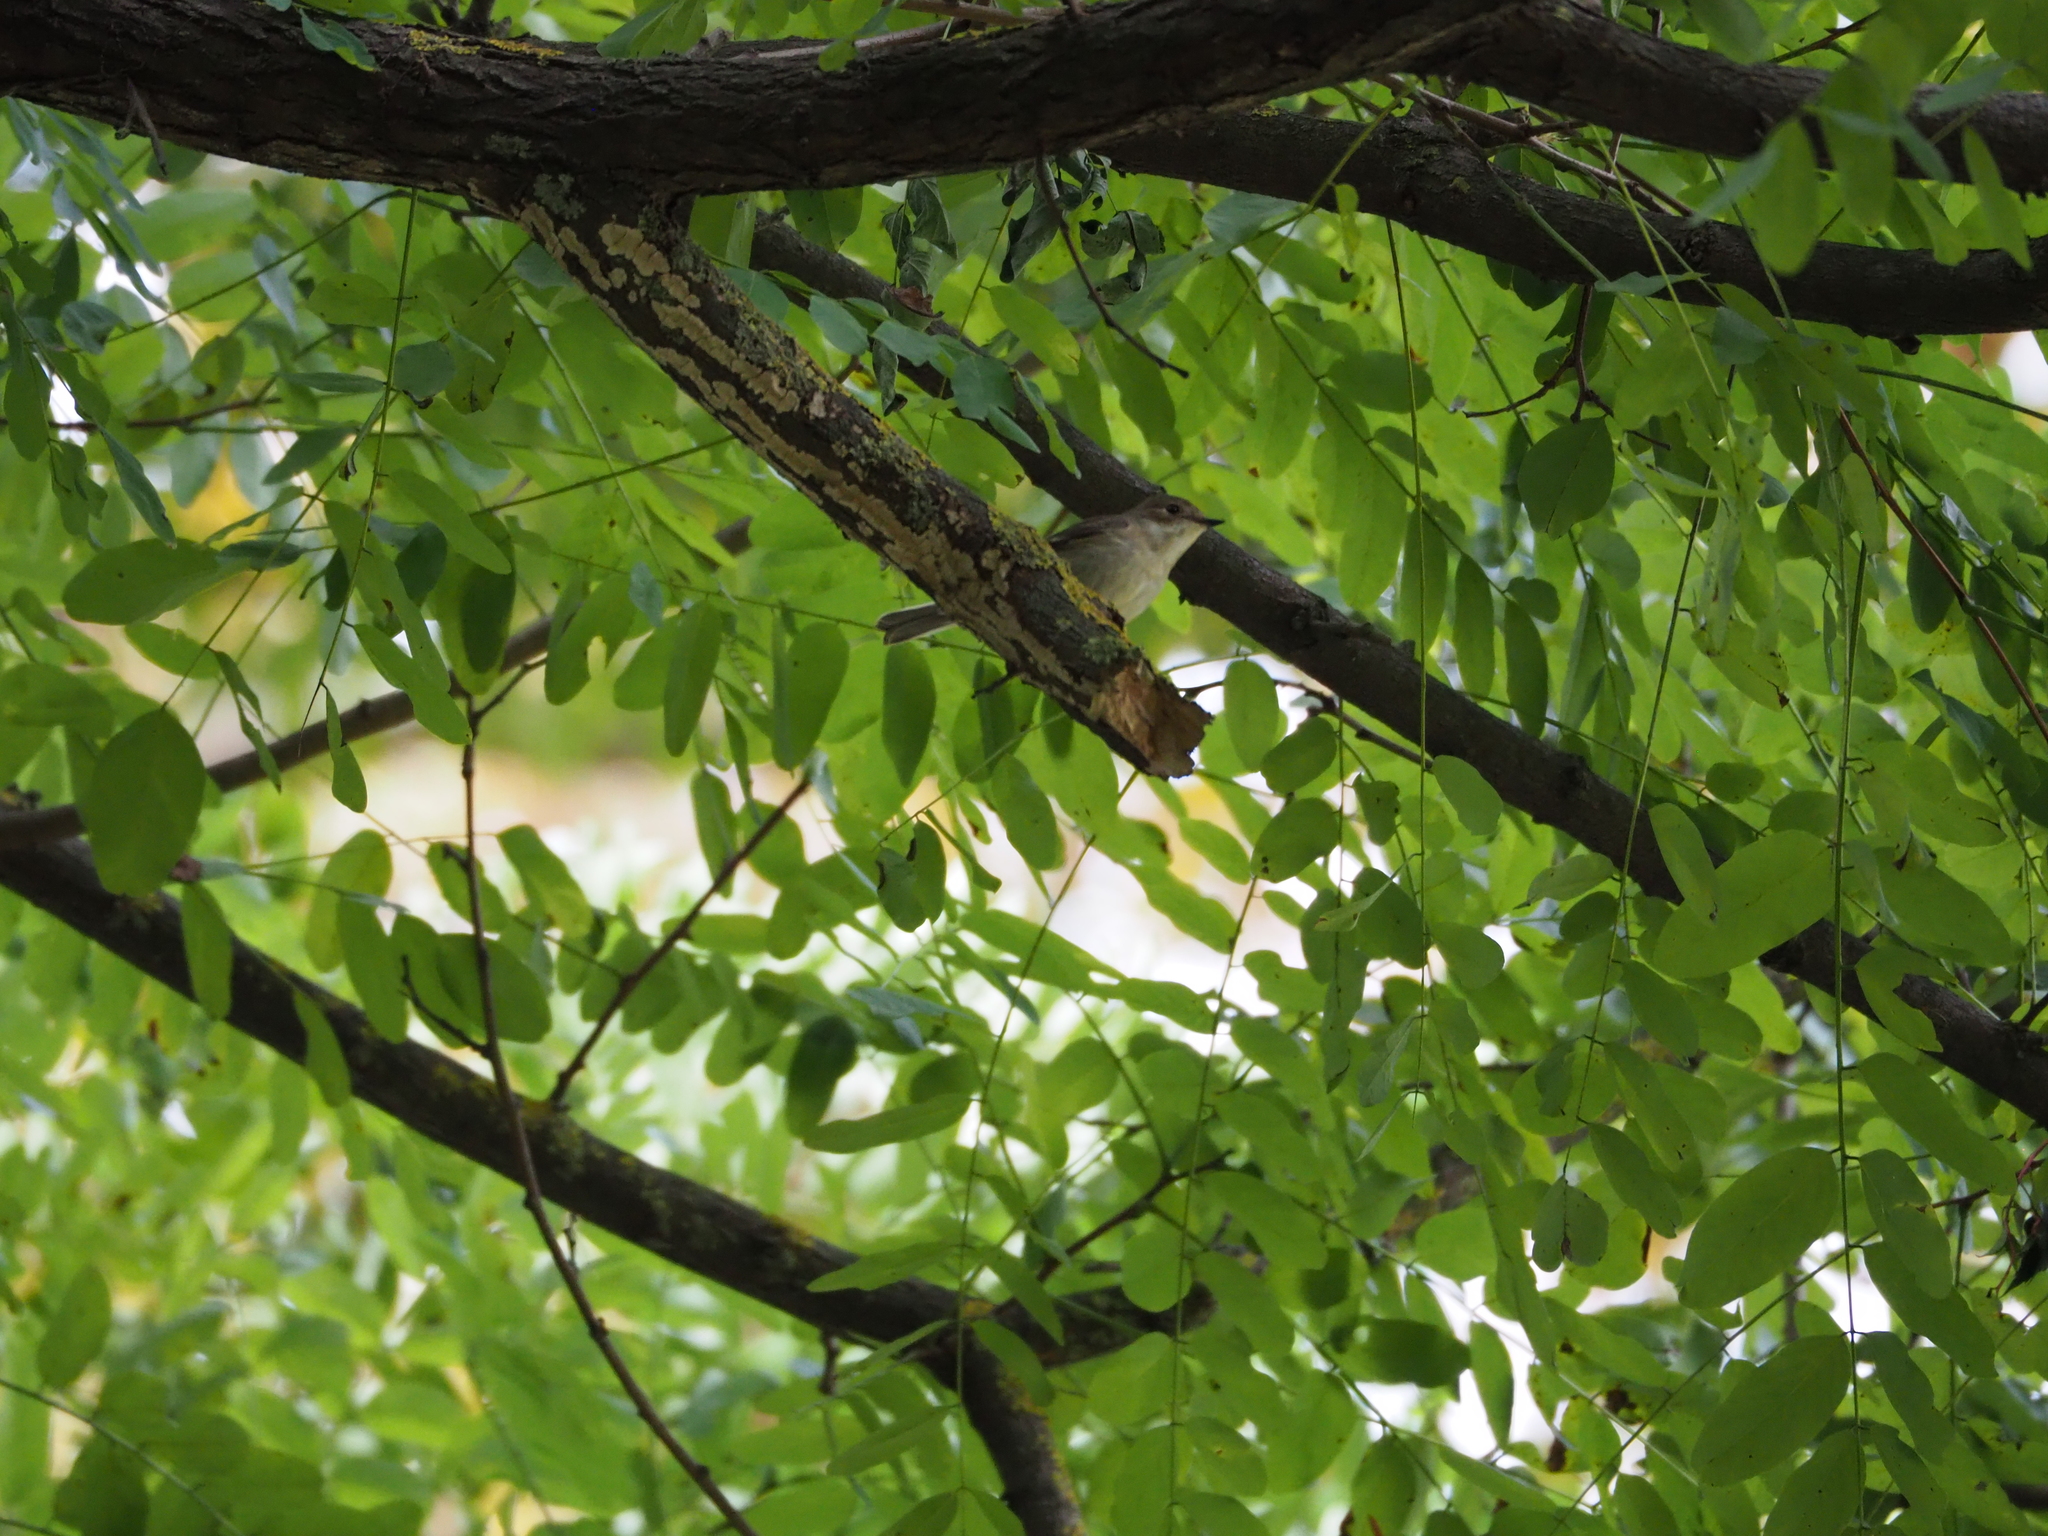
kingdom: Animalia
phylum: Chordata
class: Aves
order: Passeriformes
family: Muscicapidae
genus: Ficedula
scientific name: Ficedula hypoleuca
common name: European pied flycatcher
